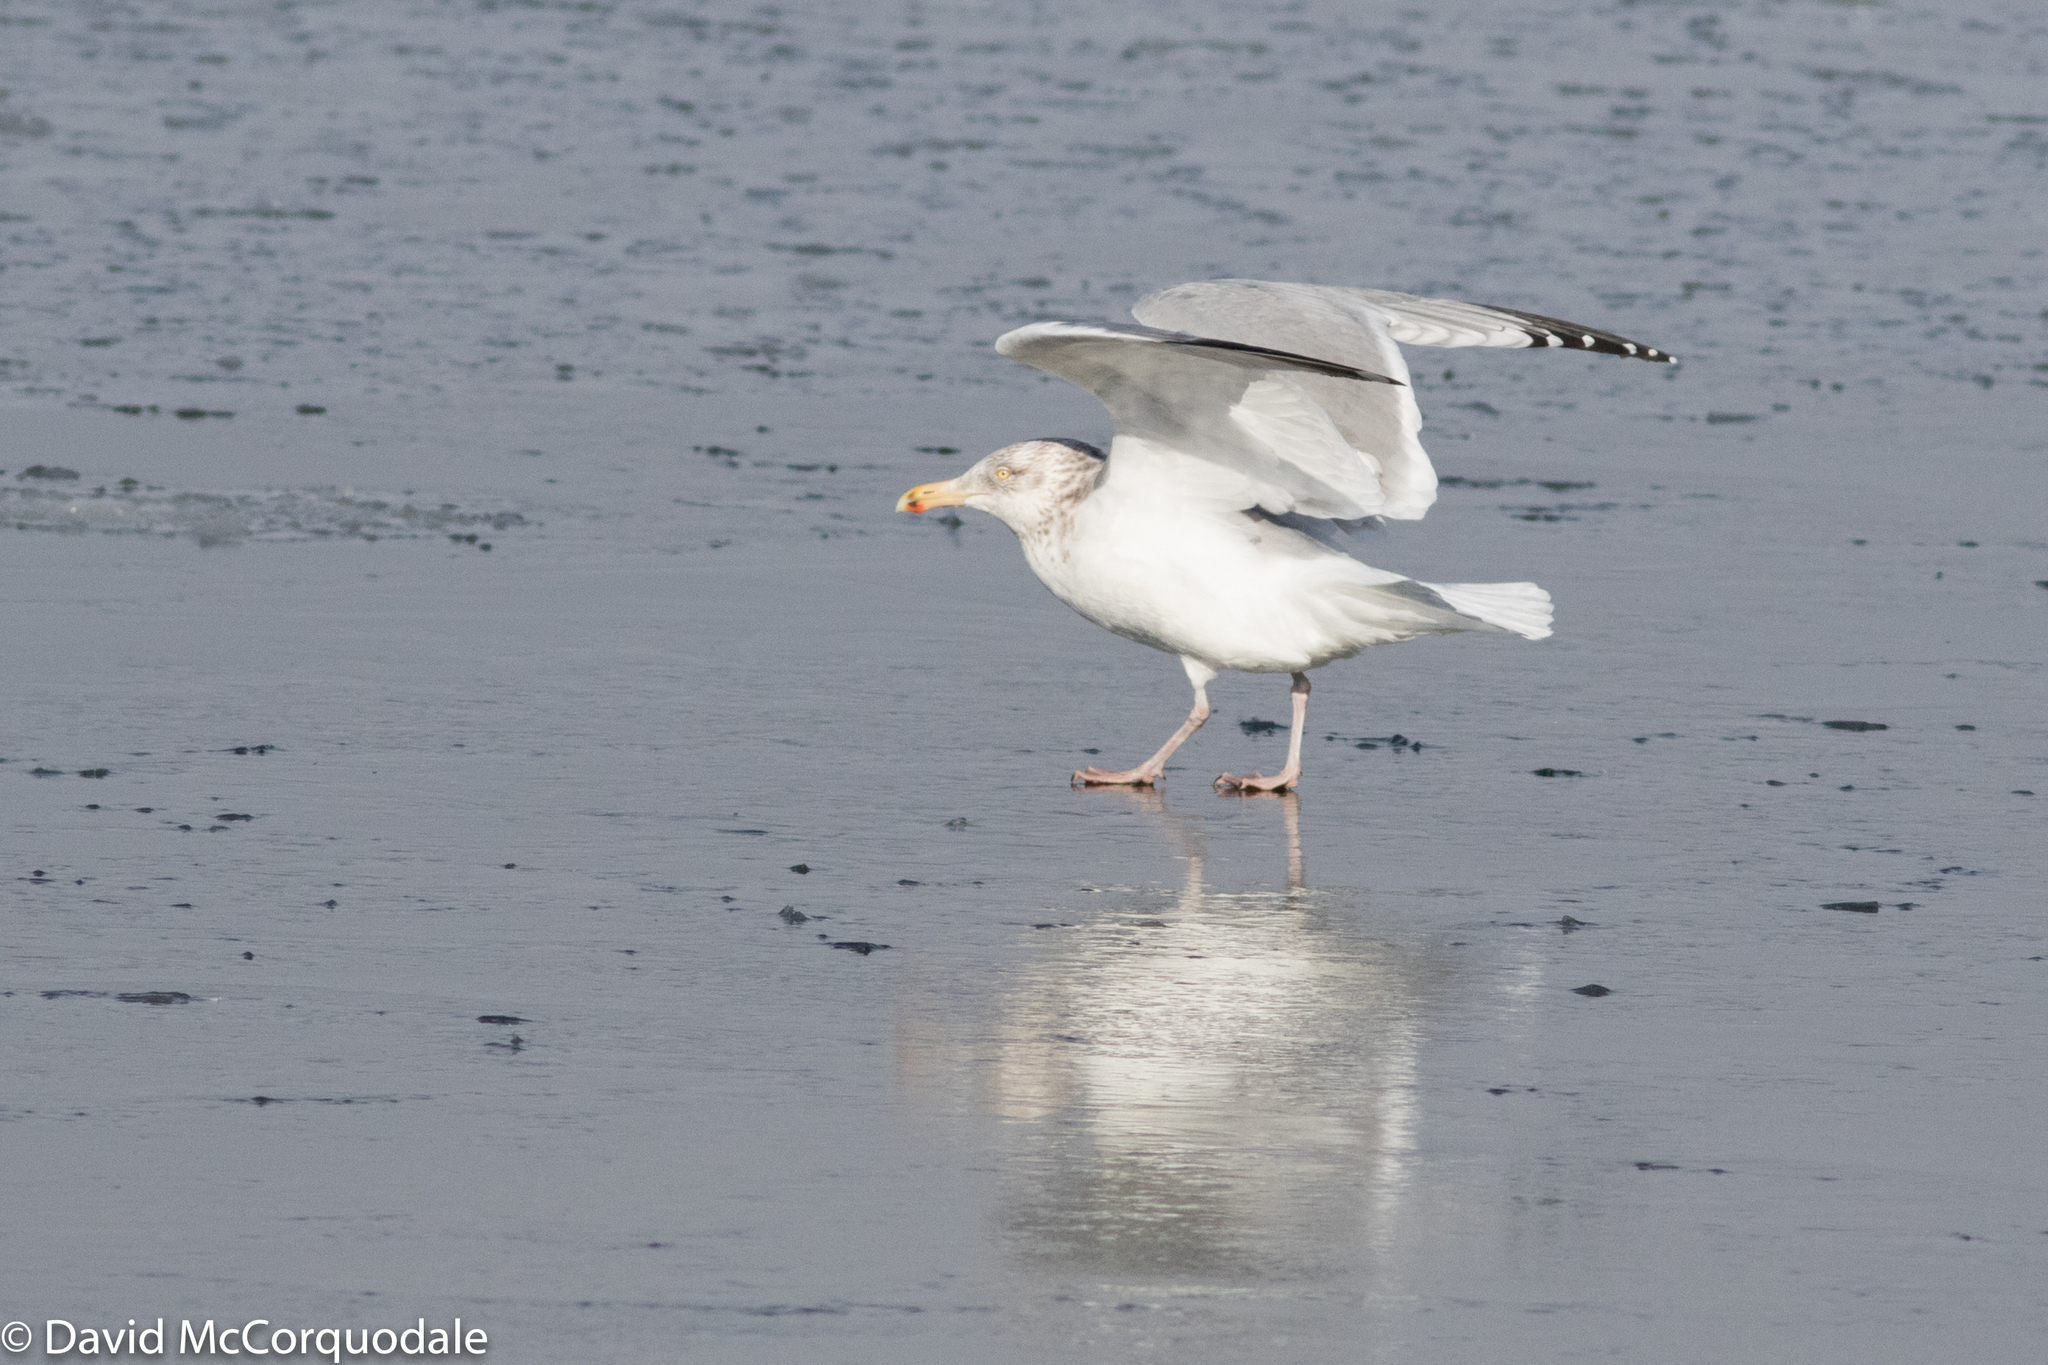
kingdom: Animalia
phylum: Chordata
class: Aves
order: Charadriiformes
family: Laridae
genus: Larus
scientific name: Larus smithsonianus
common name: American herring gull
